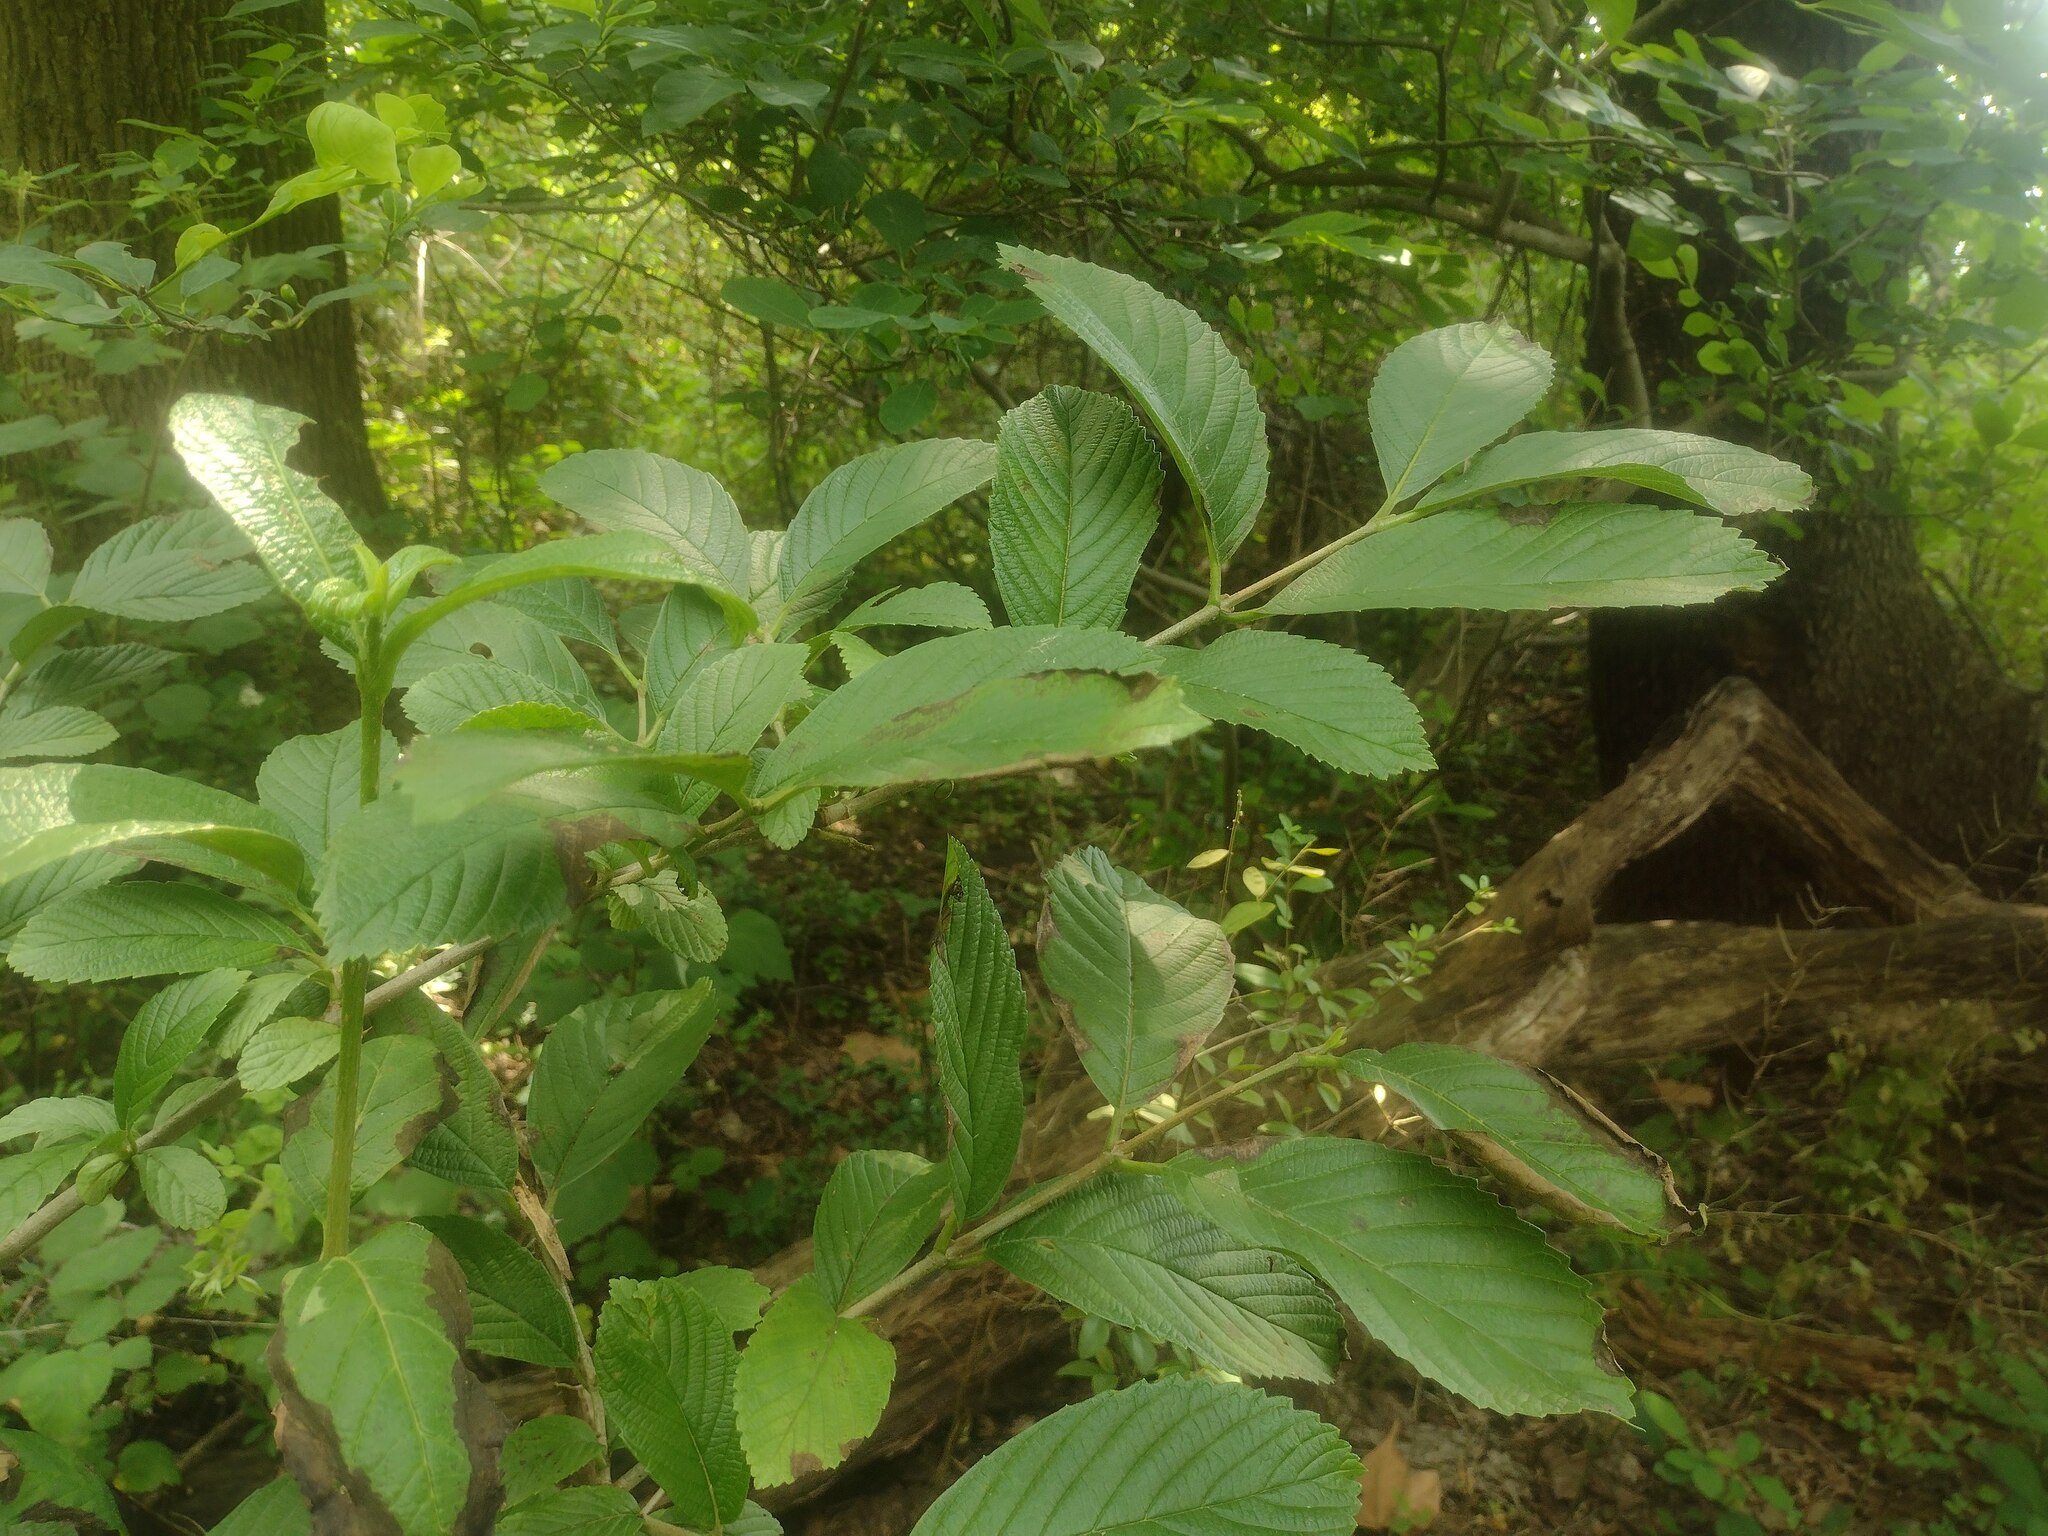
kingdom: Plantae
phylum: Tracheophyta
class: Magnoliopsida
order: Dipsacales
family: Viburnaceae
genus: Viburnum
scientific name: Viburnum sieboldii
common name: Siebold's arrowwood
